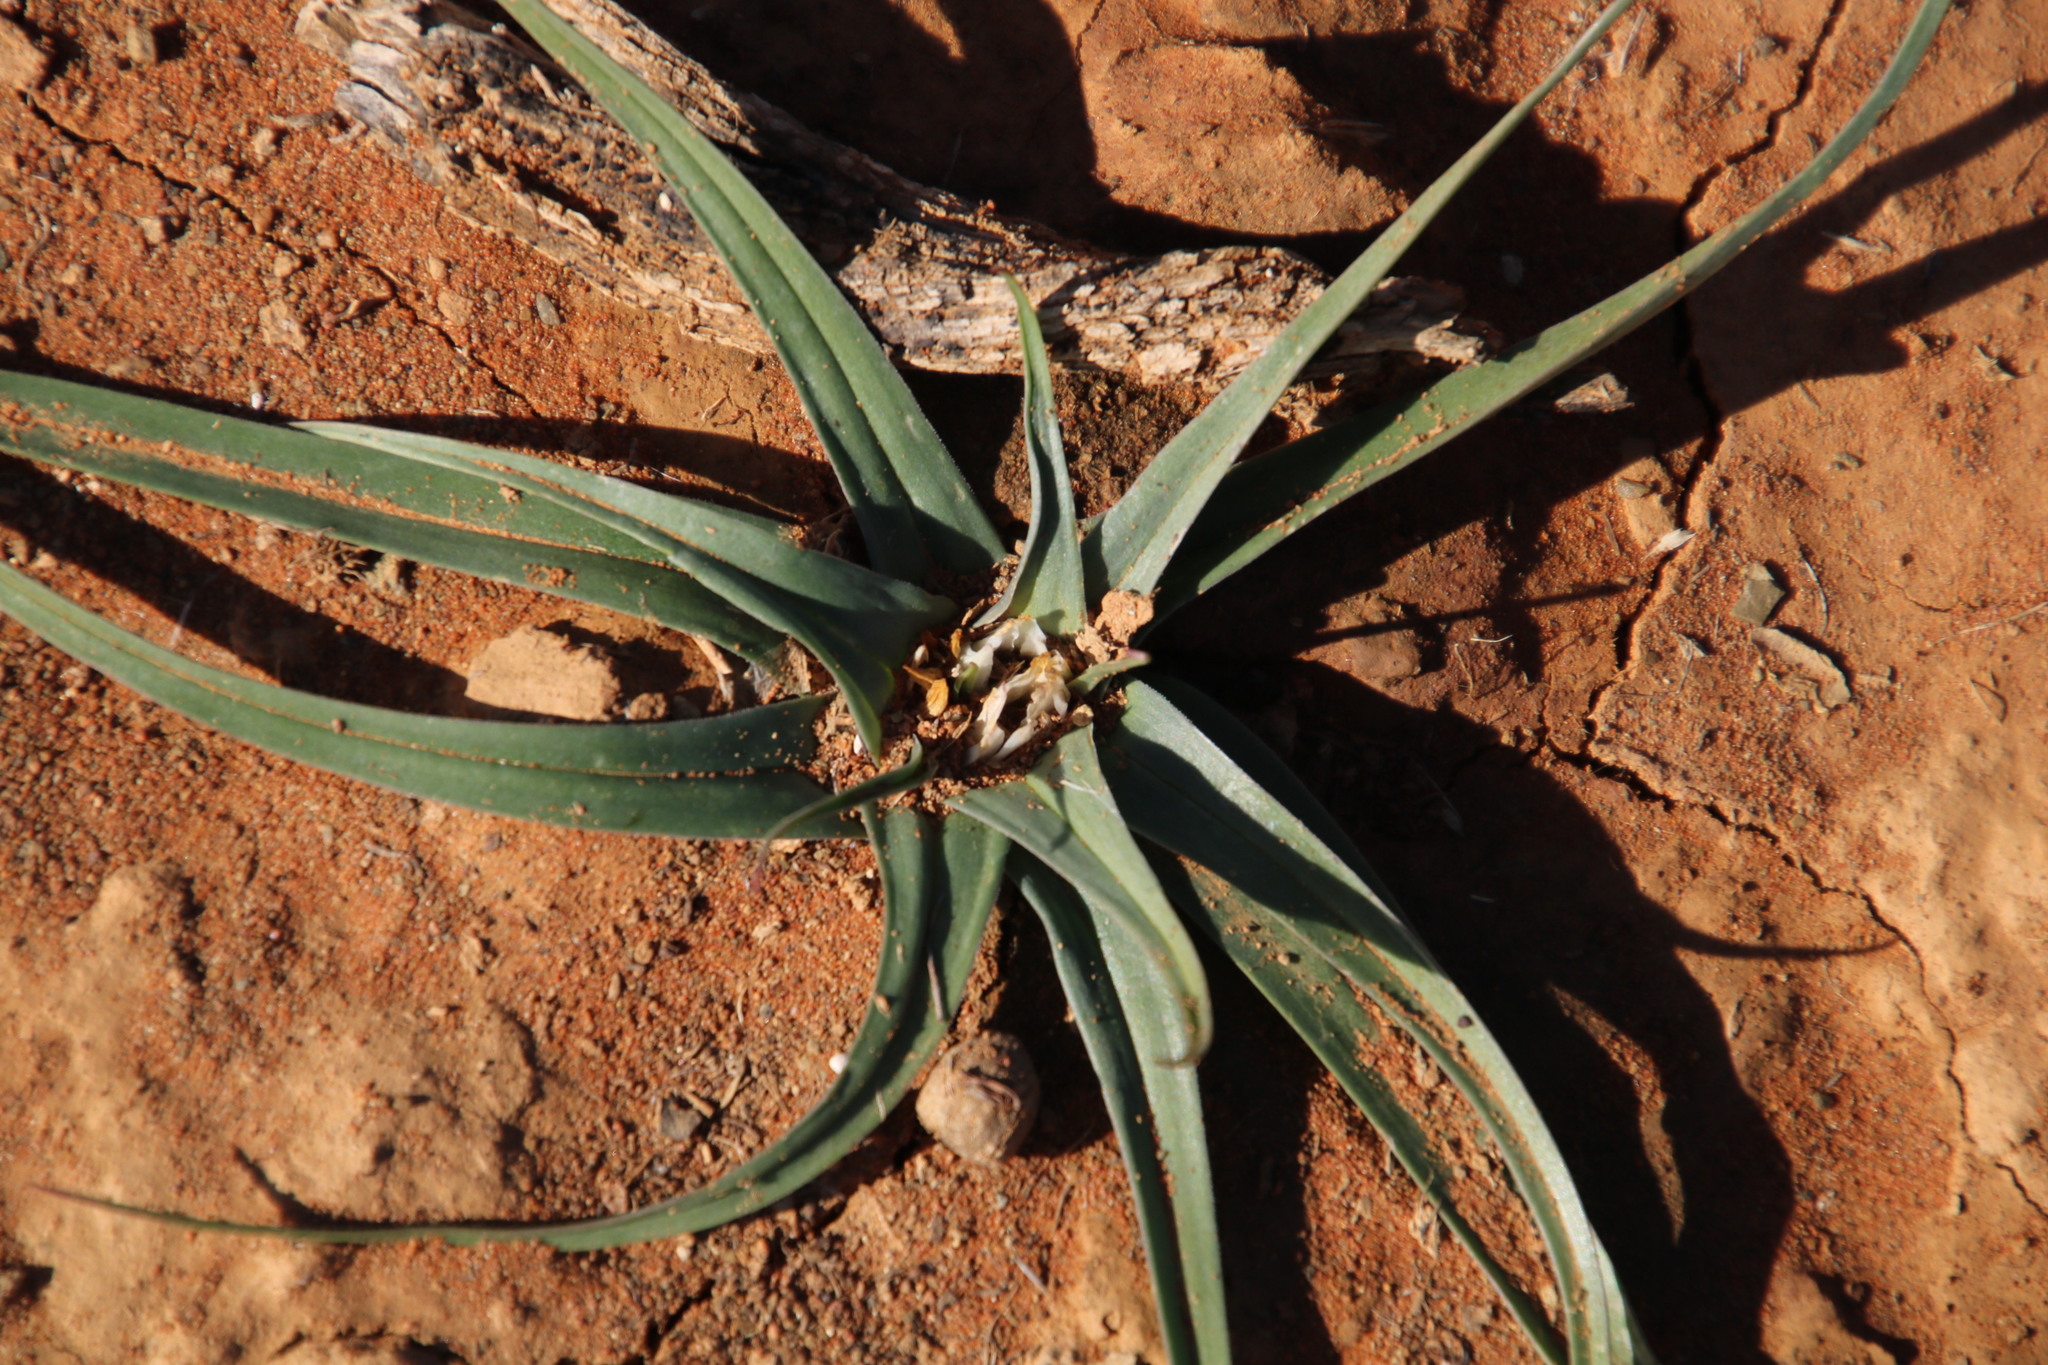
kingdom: Plantae
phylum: Tracheophyta
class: Liliopsida
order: Liliales
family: Colchicaceae
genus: Colchicum
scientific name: Colchicum asteroides
